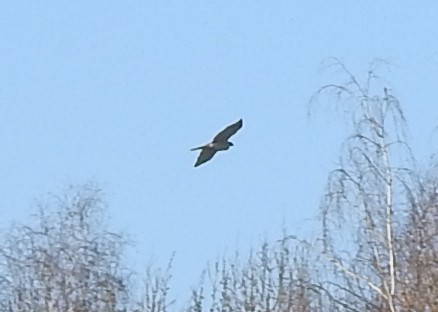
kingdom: Animalia
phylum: Chordata
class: Aves
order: Accipitriformes
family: Accipitridae
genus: Accipiter
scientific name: Accipiter gentilis
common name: Northern goshawk
